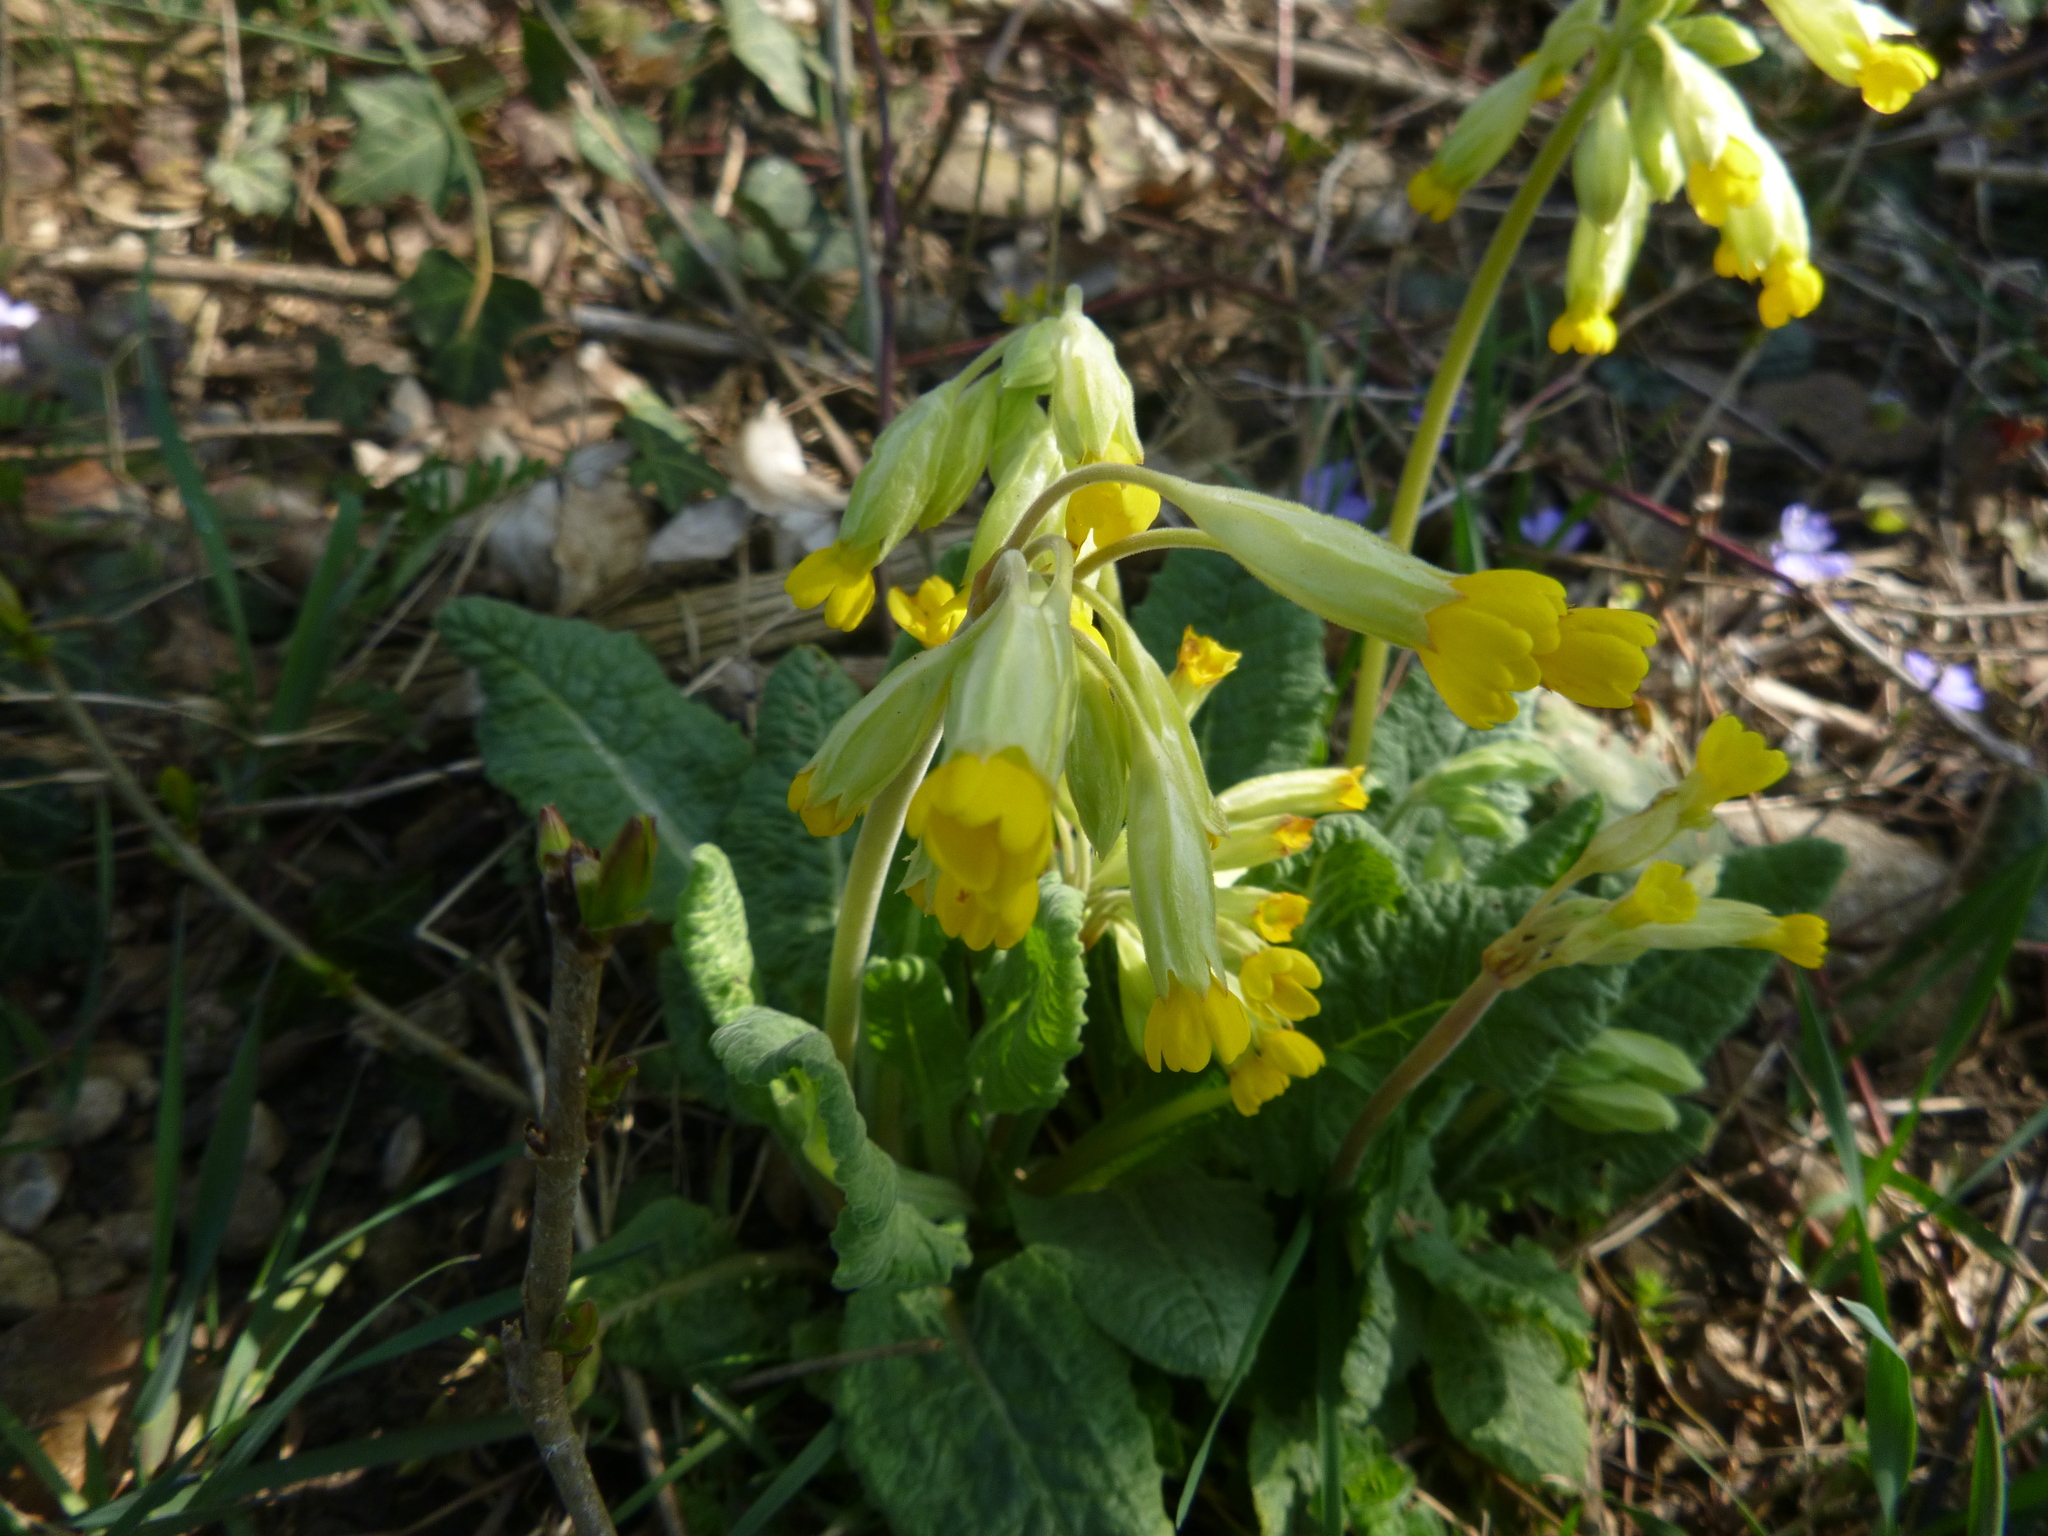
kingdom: Plantae
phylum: Tracheophyta
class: Magnoliopsida
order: Ericales
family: Primulaceae
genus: Primula
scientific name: Primula veris
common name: Cowslip
